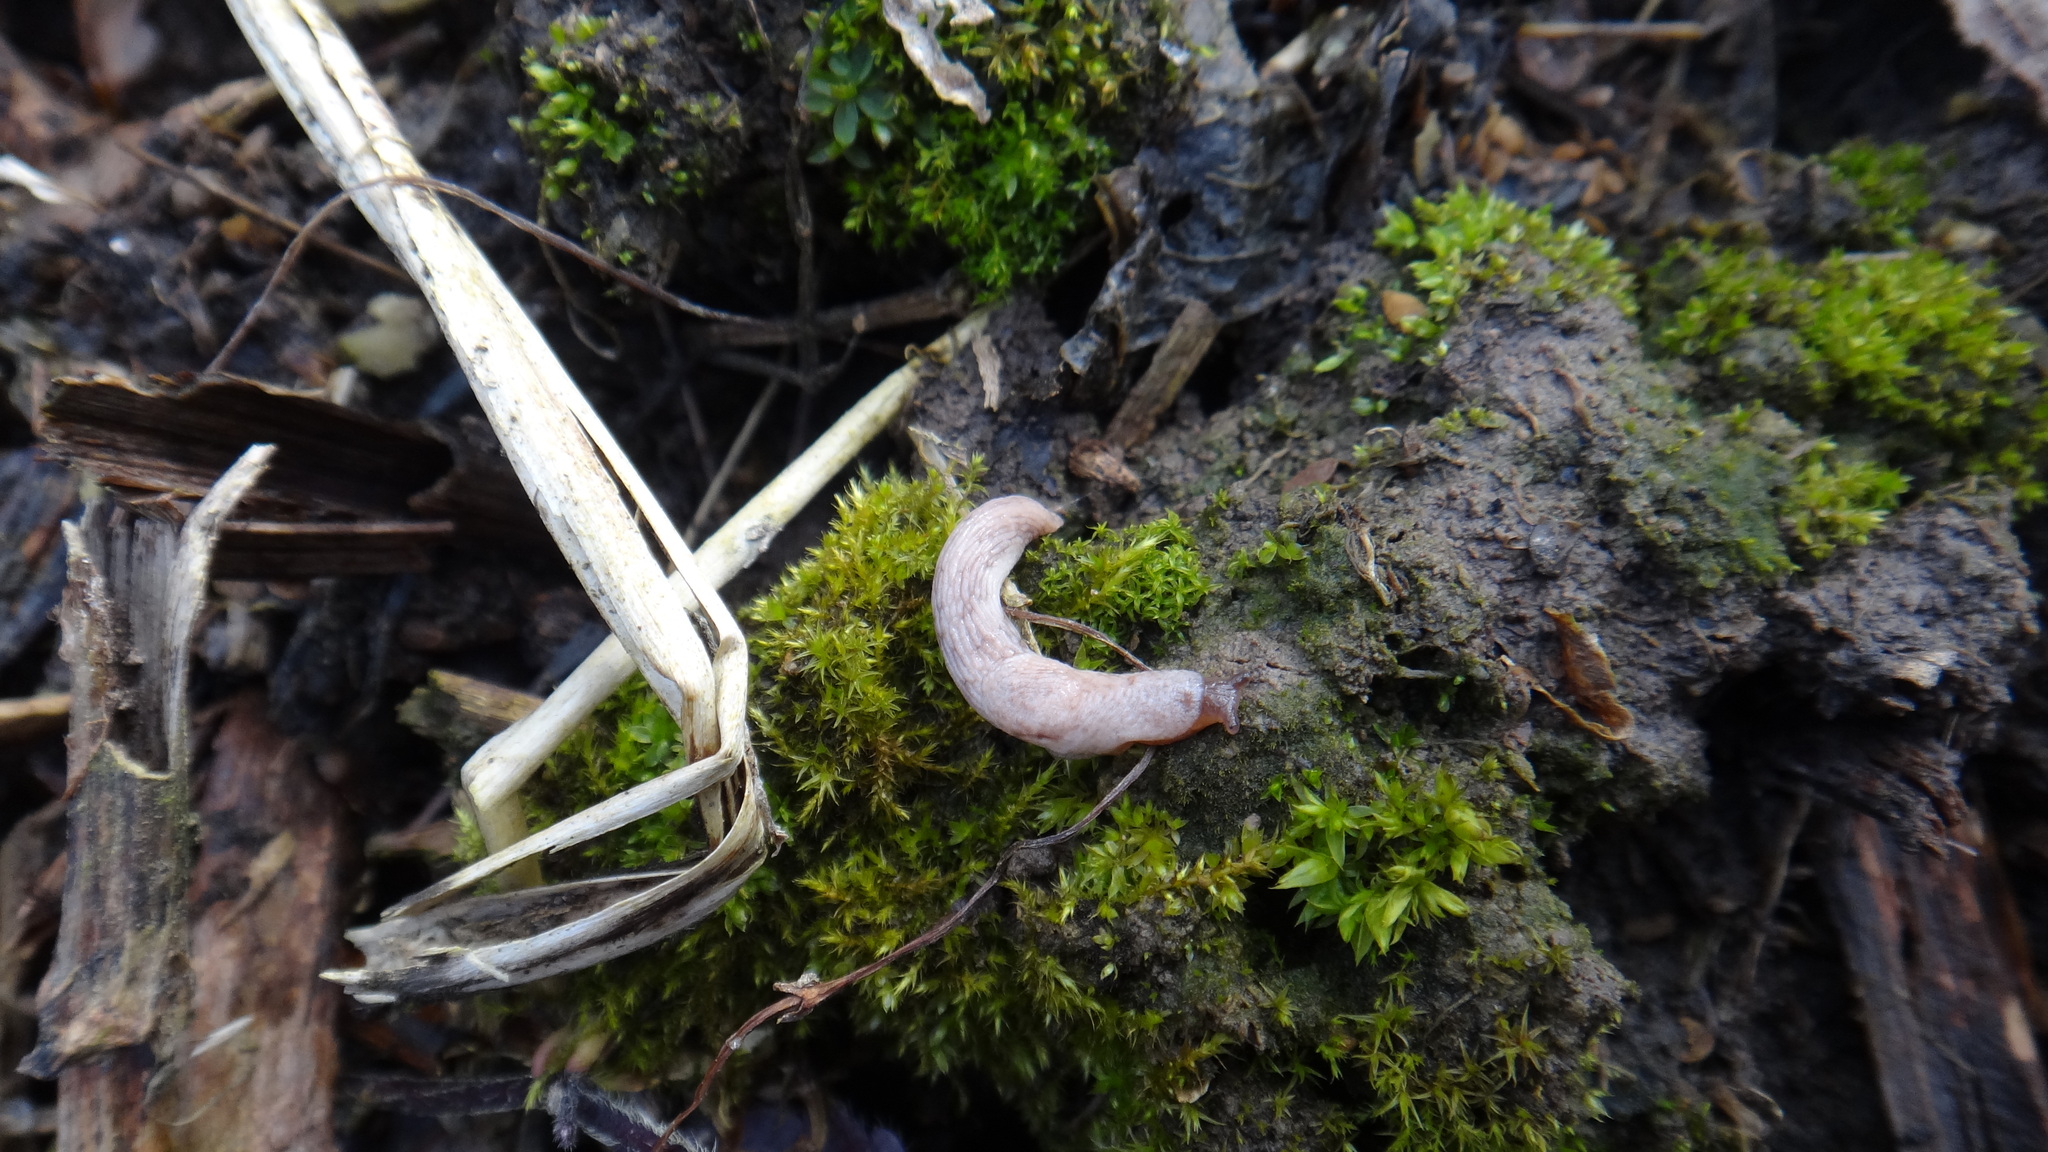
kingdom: Animalia
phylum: Mollusca
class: Gastropoda
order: Stylommatophora
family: Agriolimacidae
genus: Deroceras
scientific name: Deroceras
